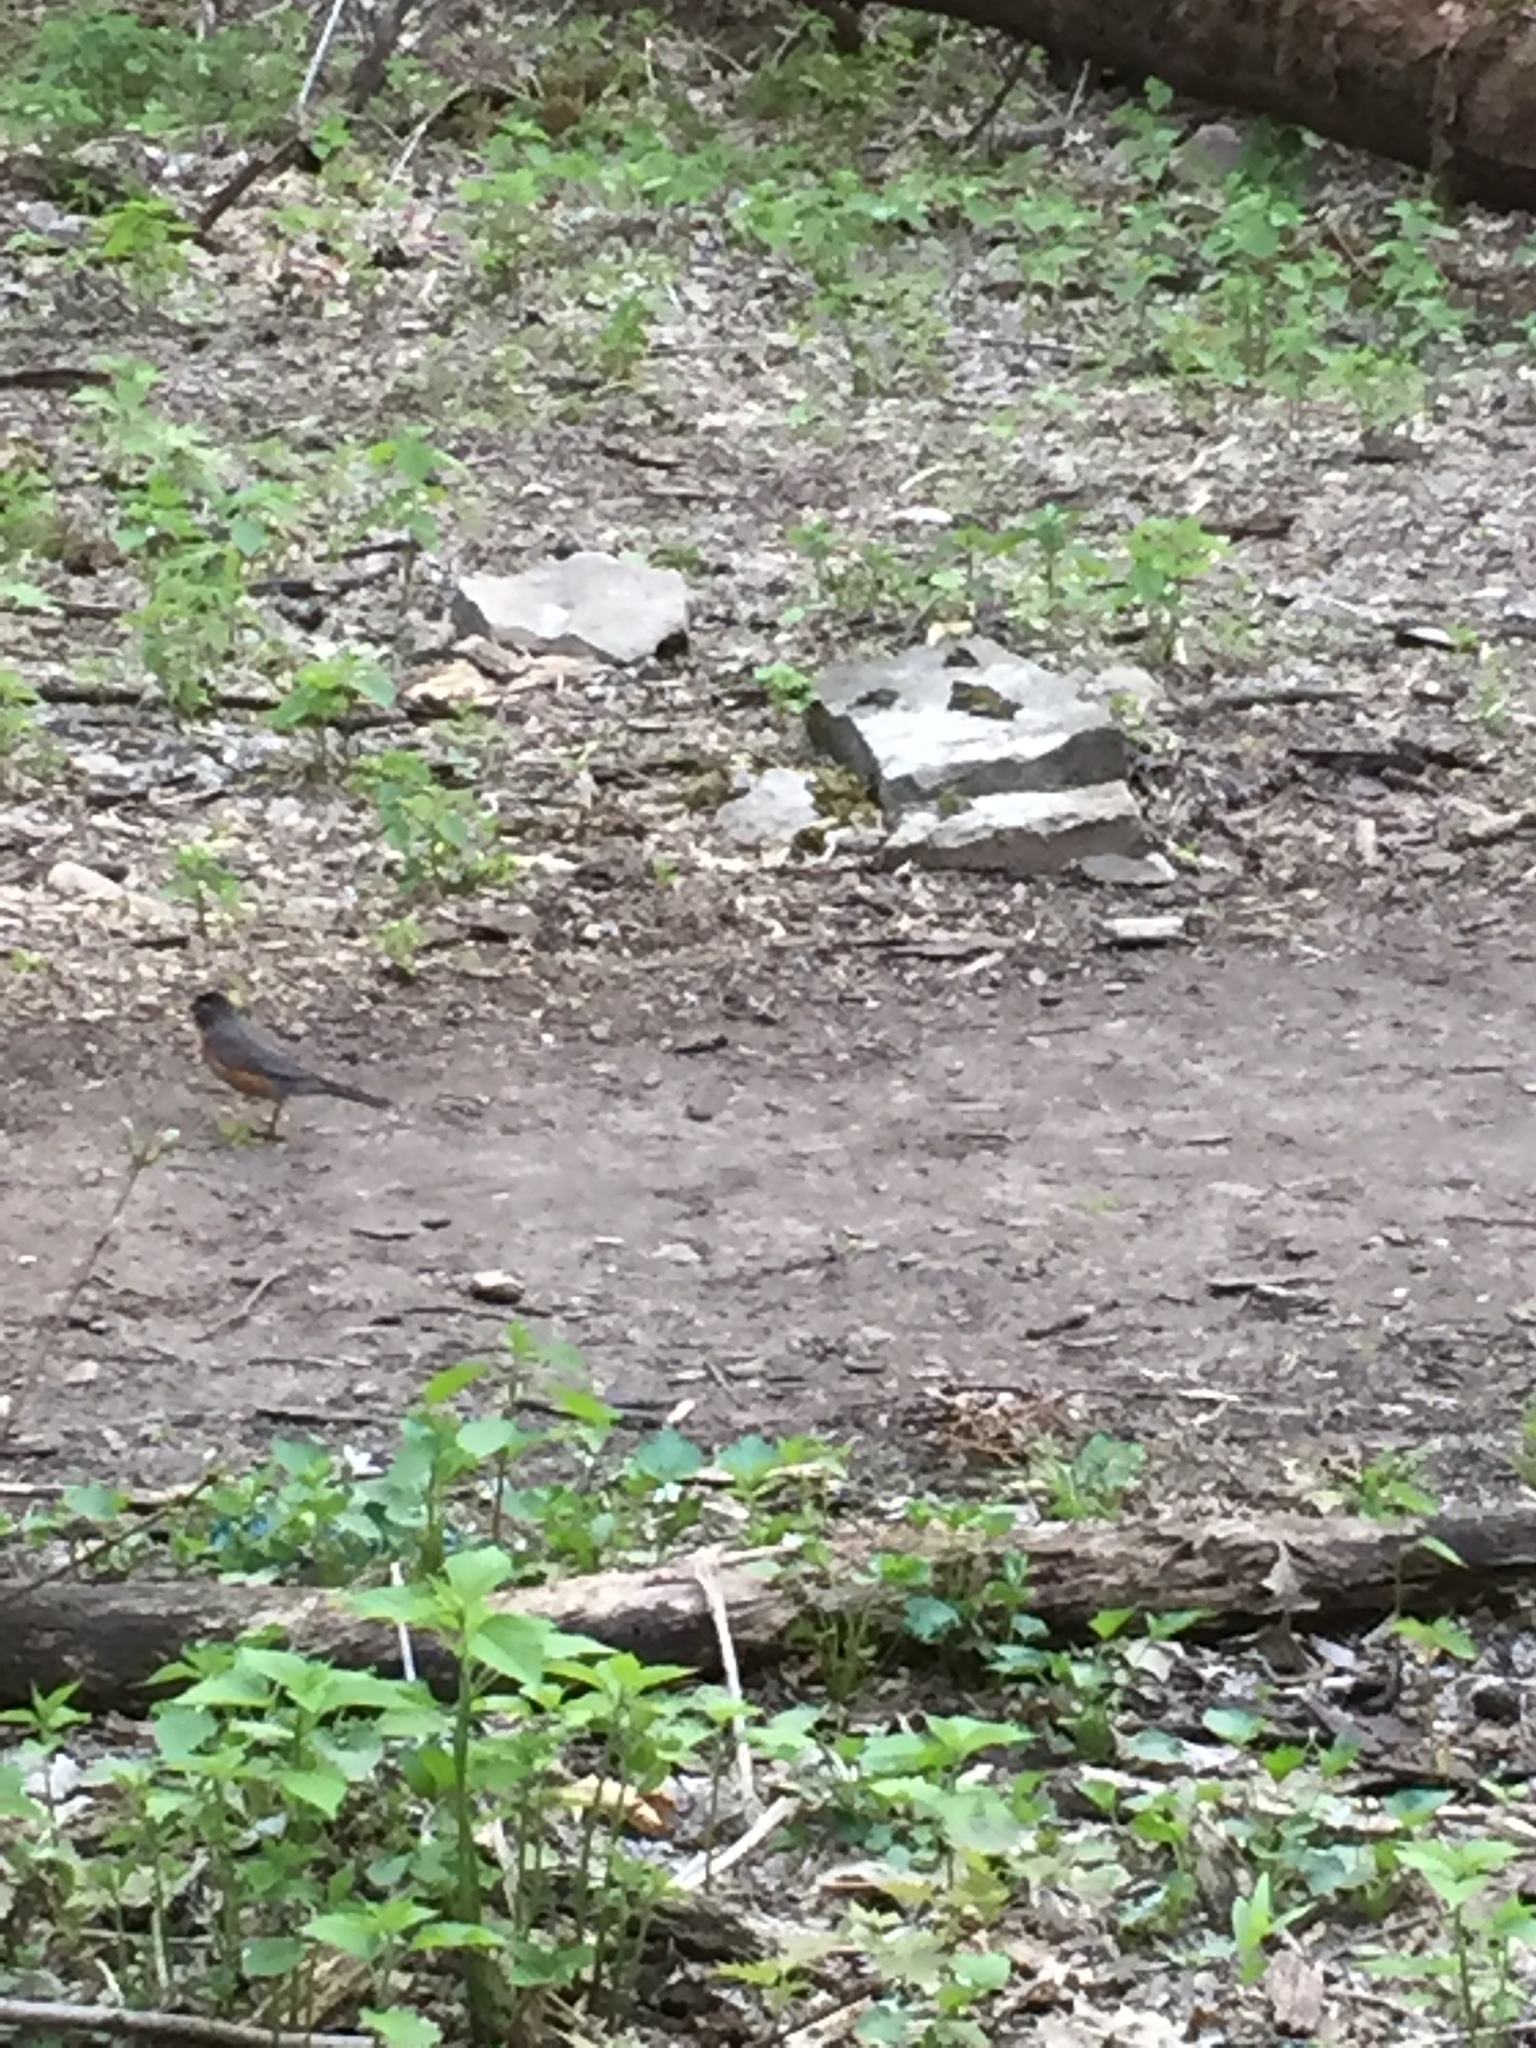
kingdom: Animalia
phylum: Chordata
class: Aves
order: Passeriformes
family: Turdidae
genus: Turdus
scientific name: Turdus migratorius
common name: American robin
